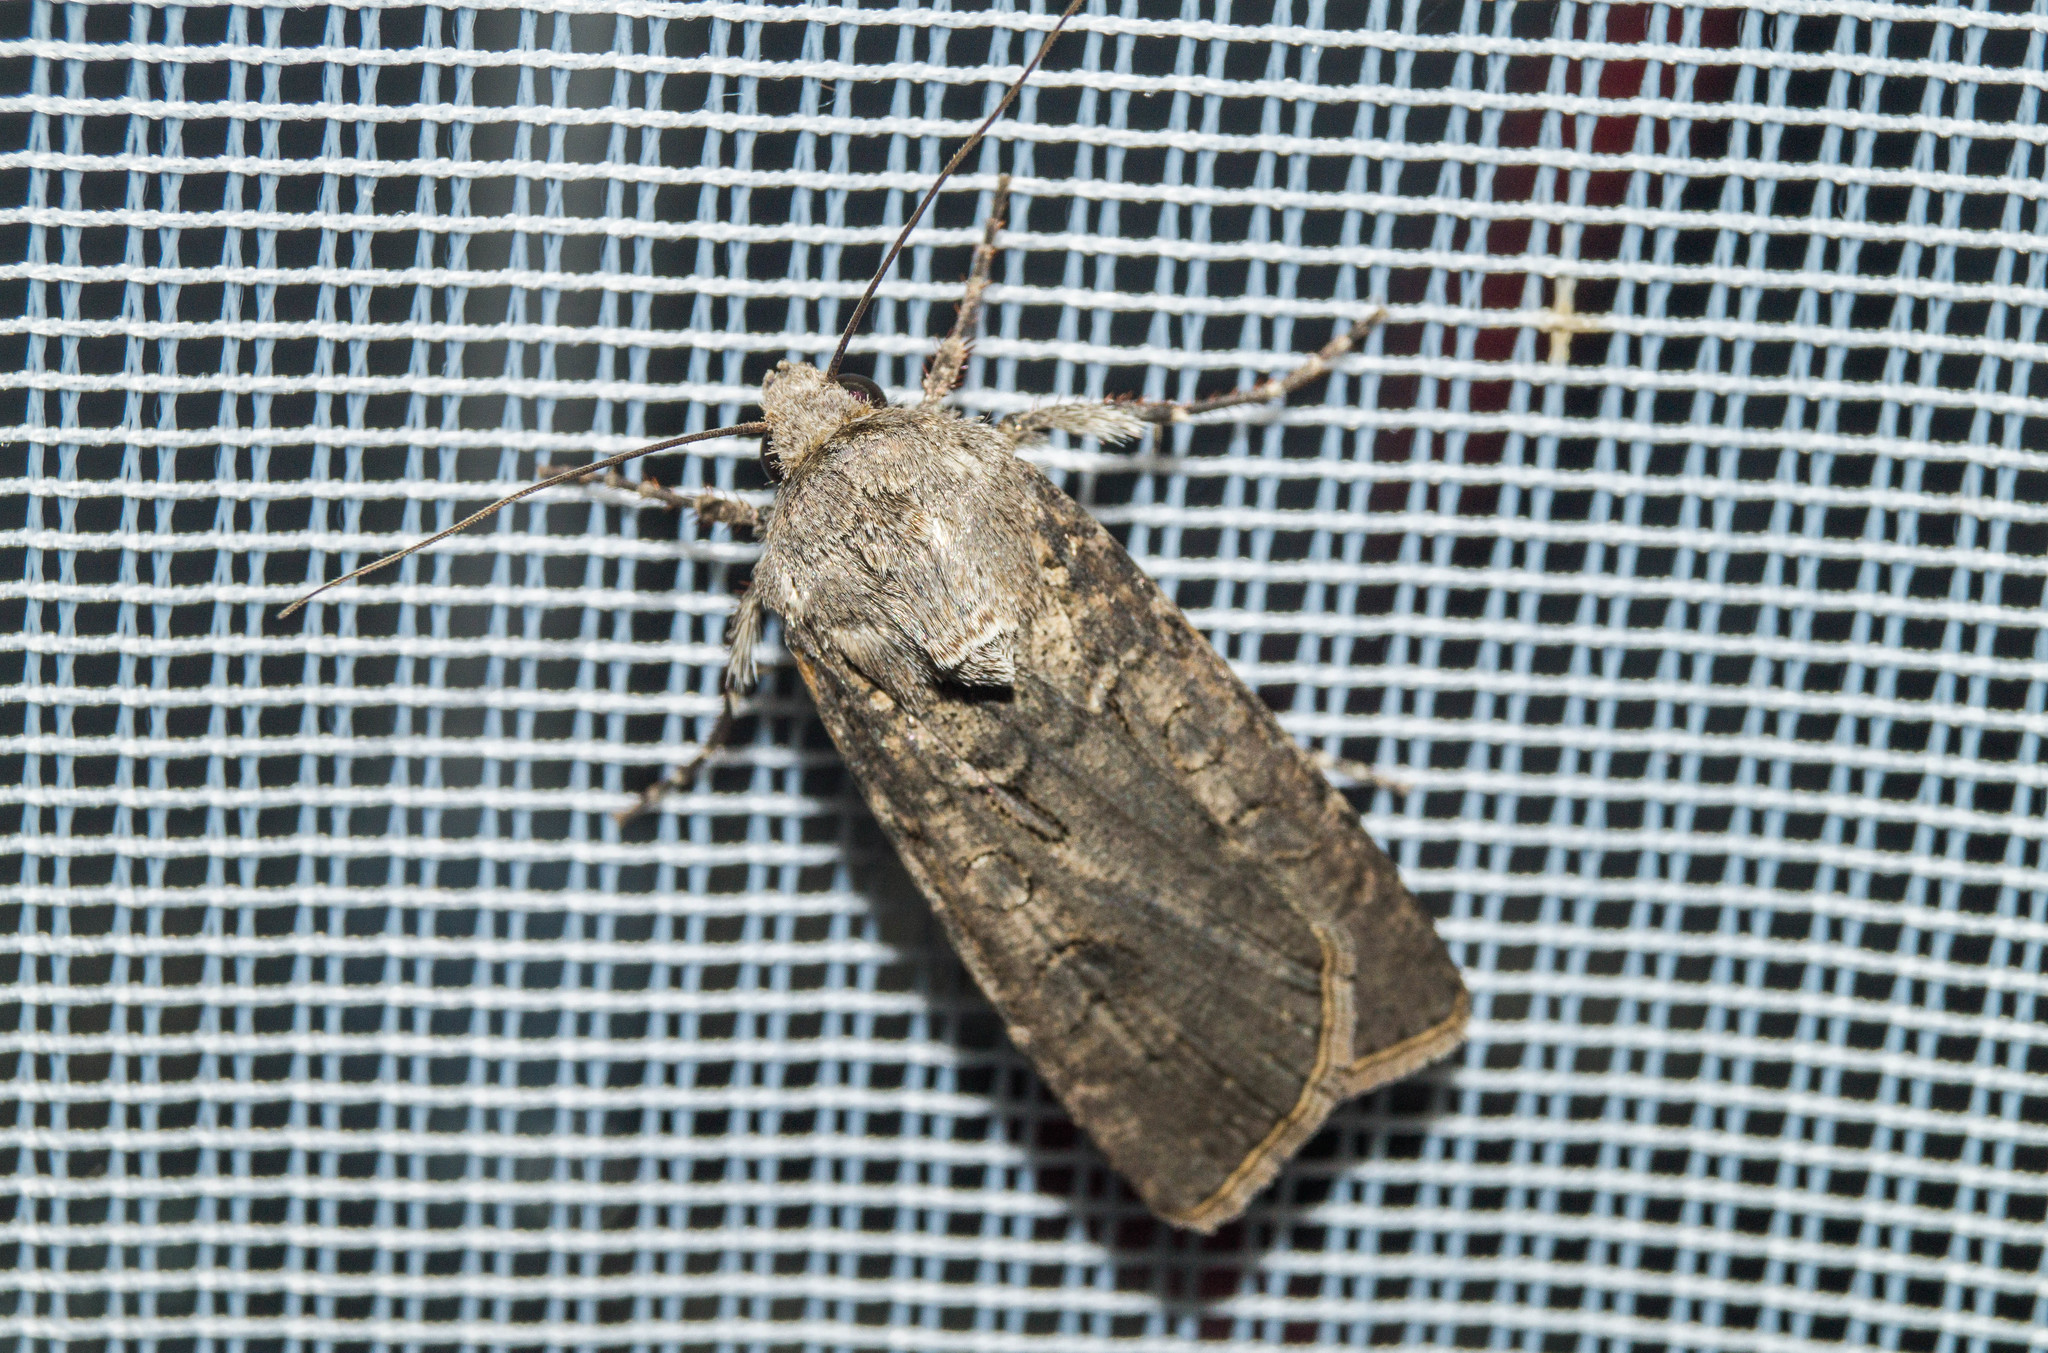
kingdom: Animalia
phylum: Arthropoda
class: Insecta
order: Lepidoptera
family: Noctuidae
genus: Agrotis
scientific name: Agrotis segetum
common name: Turnip moth
